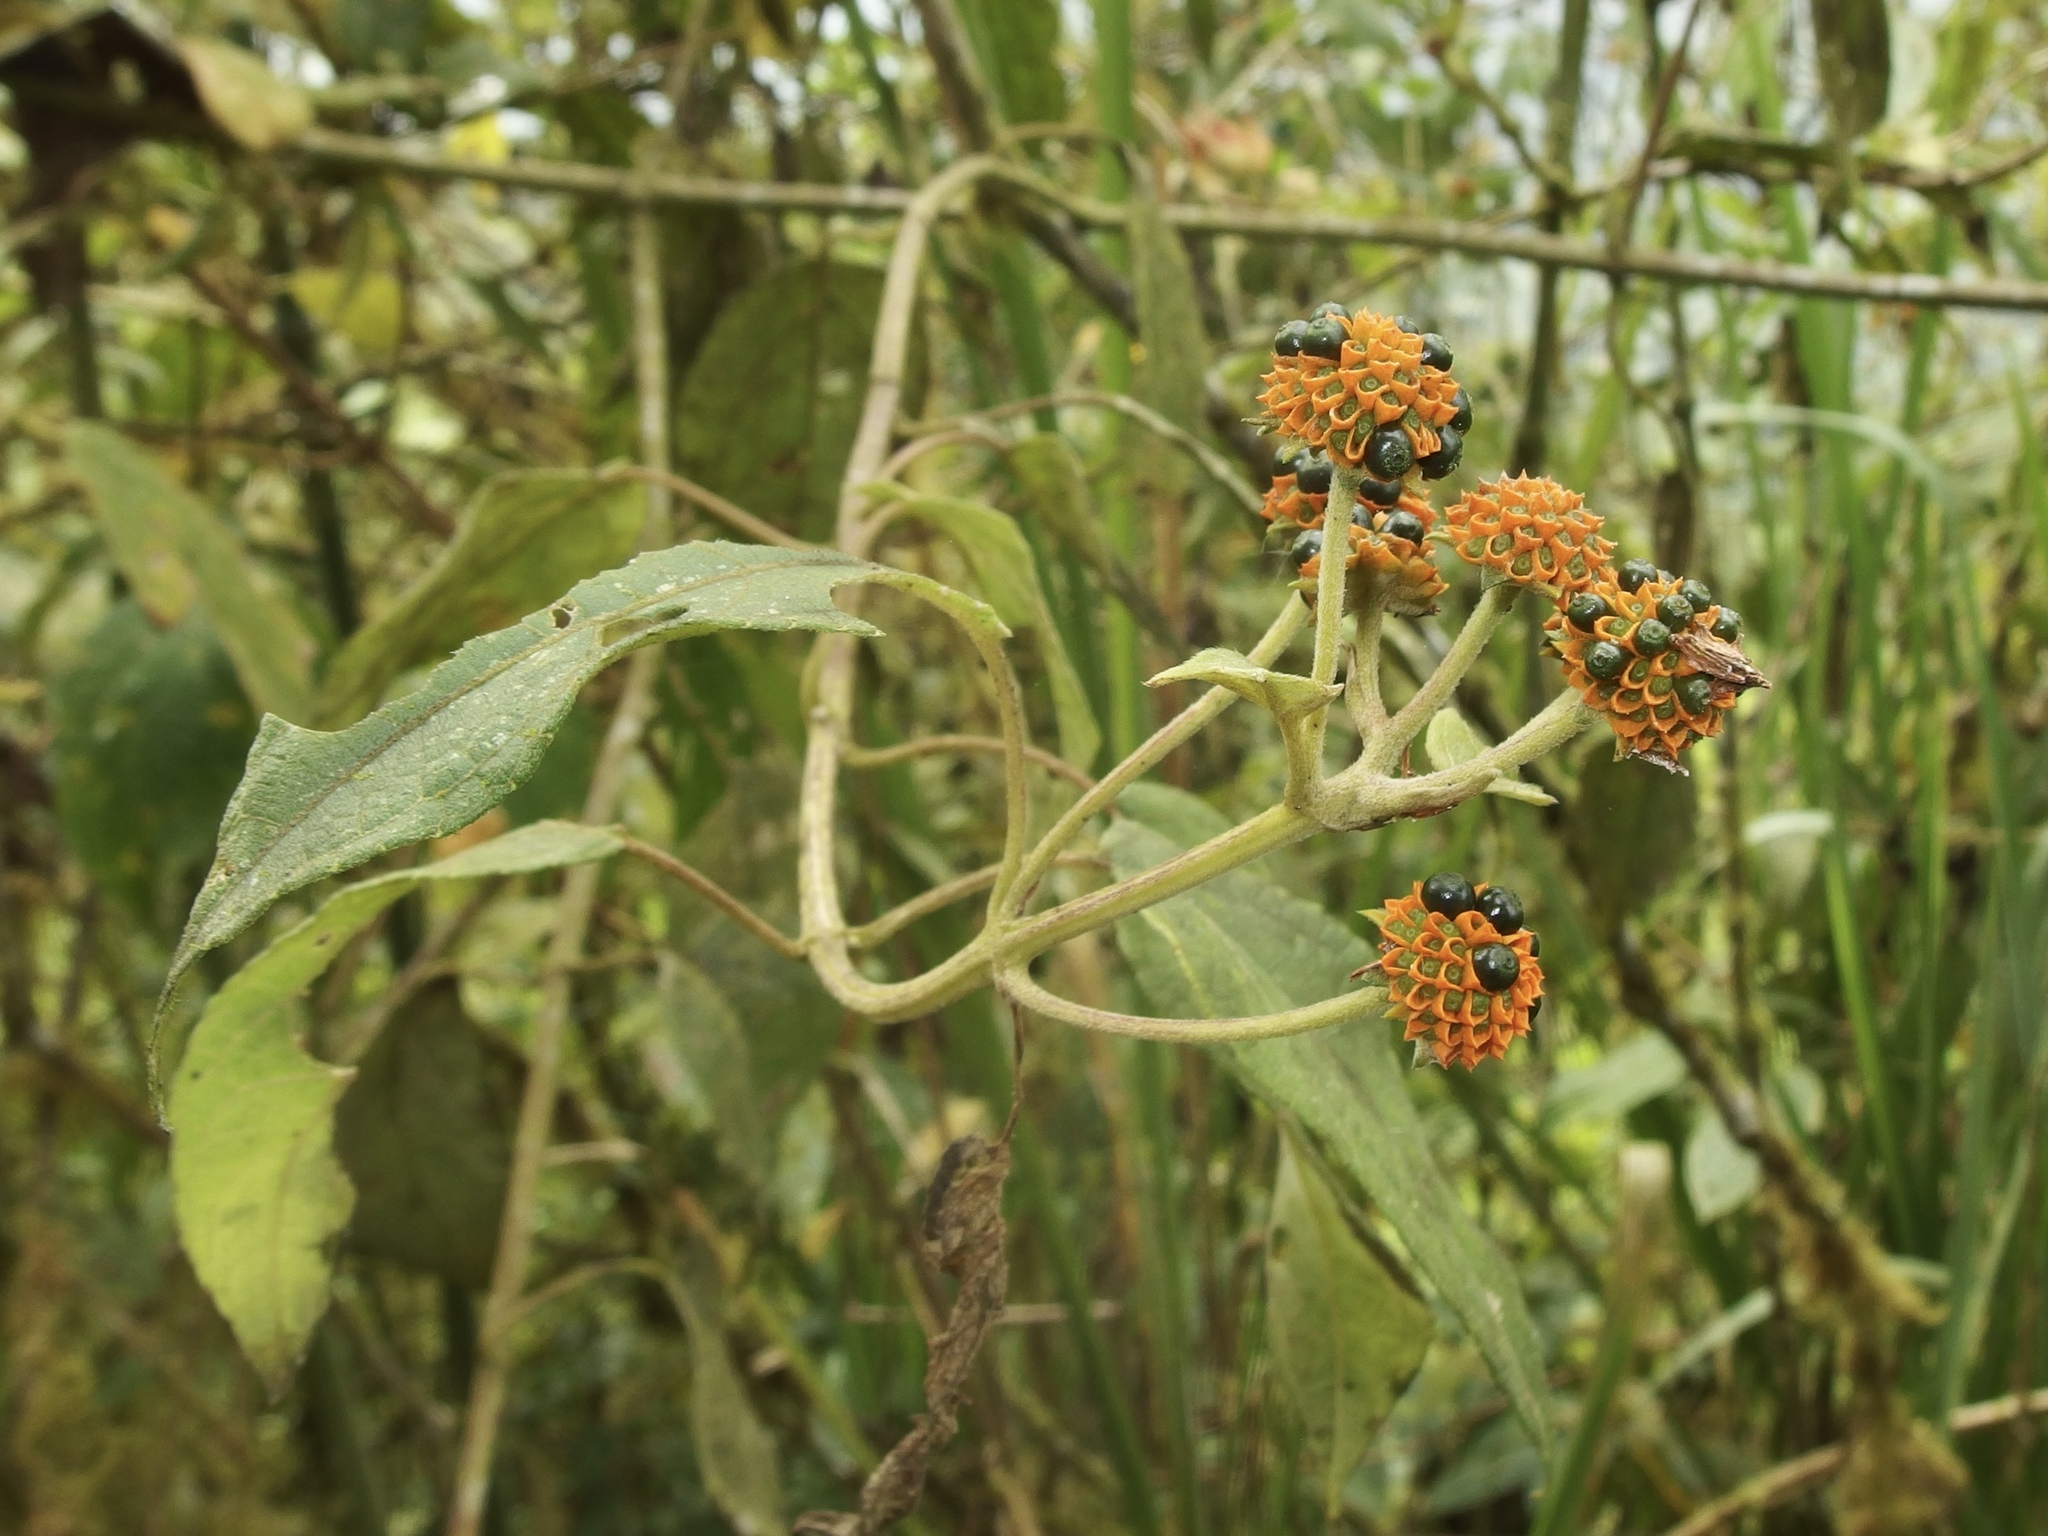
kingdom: Plantae
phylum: Tracheophyta
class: Magnoliopsida
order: Asterales
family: Asteraceae
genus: Tilesia
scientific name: Tilesia baccata
